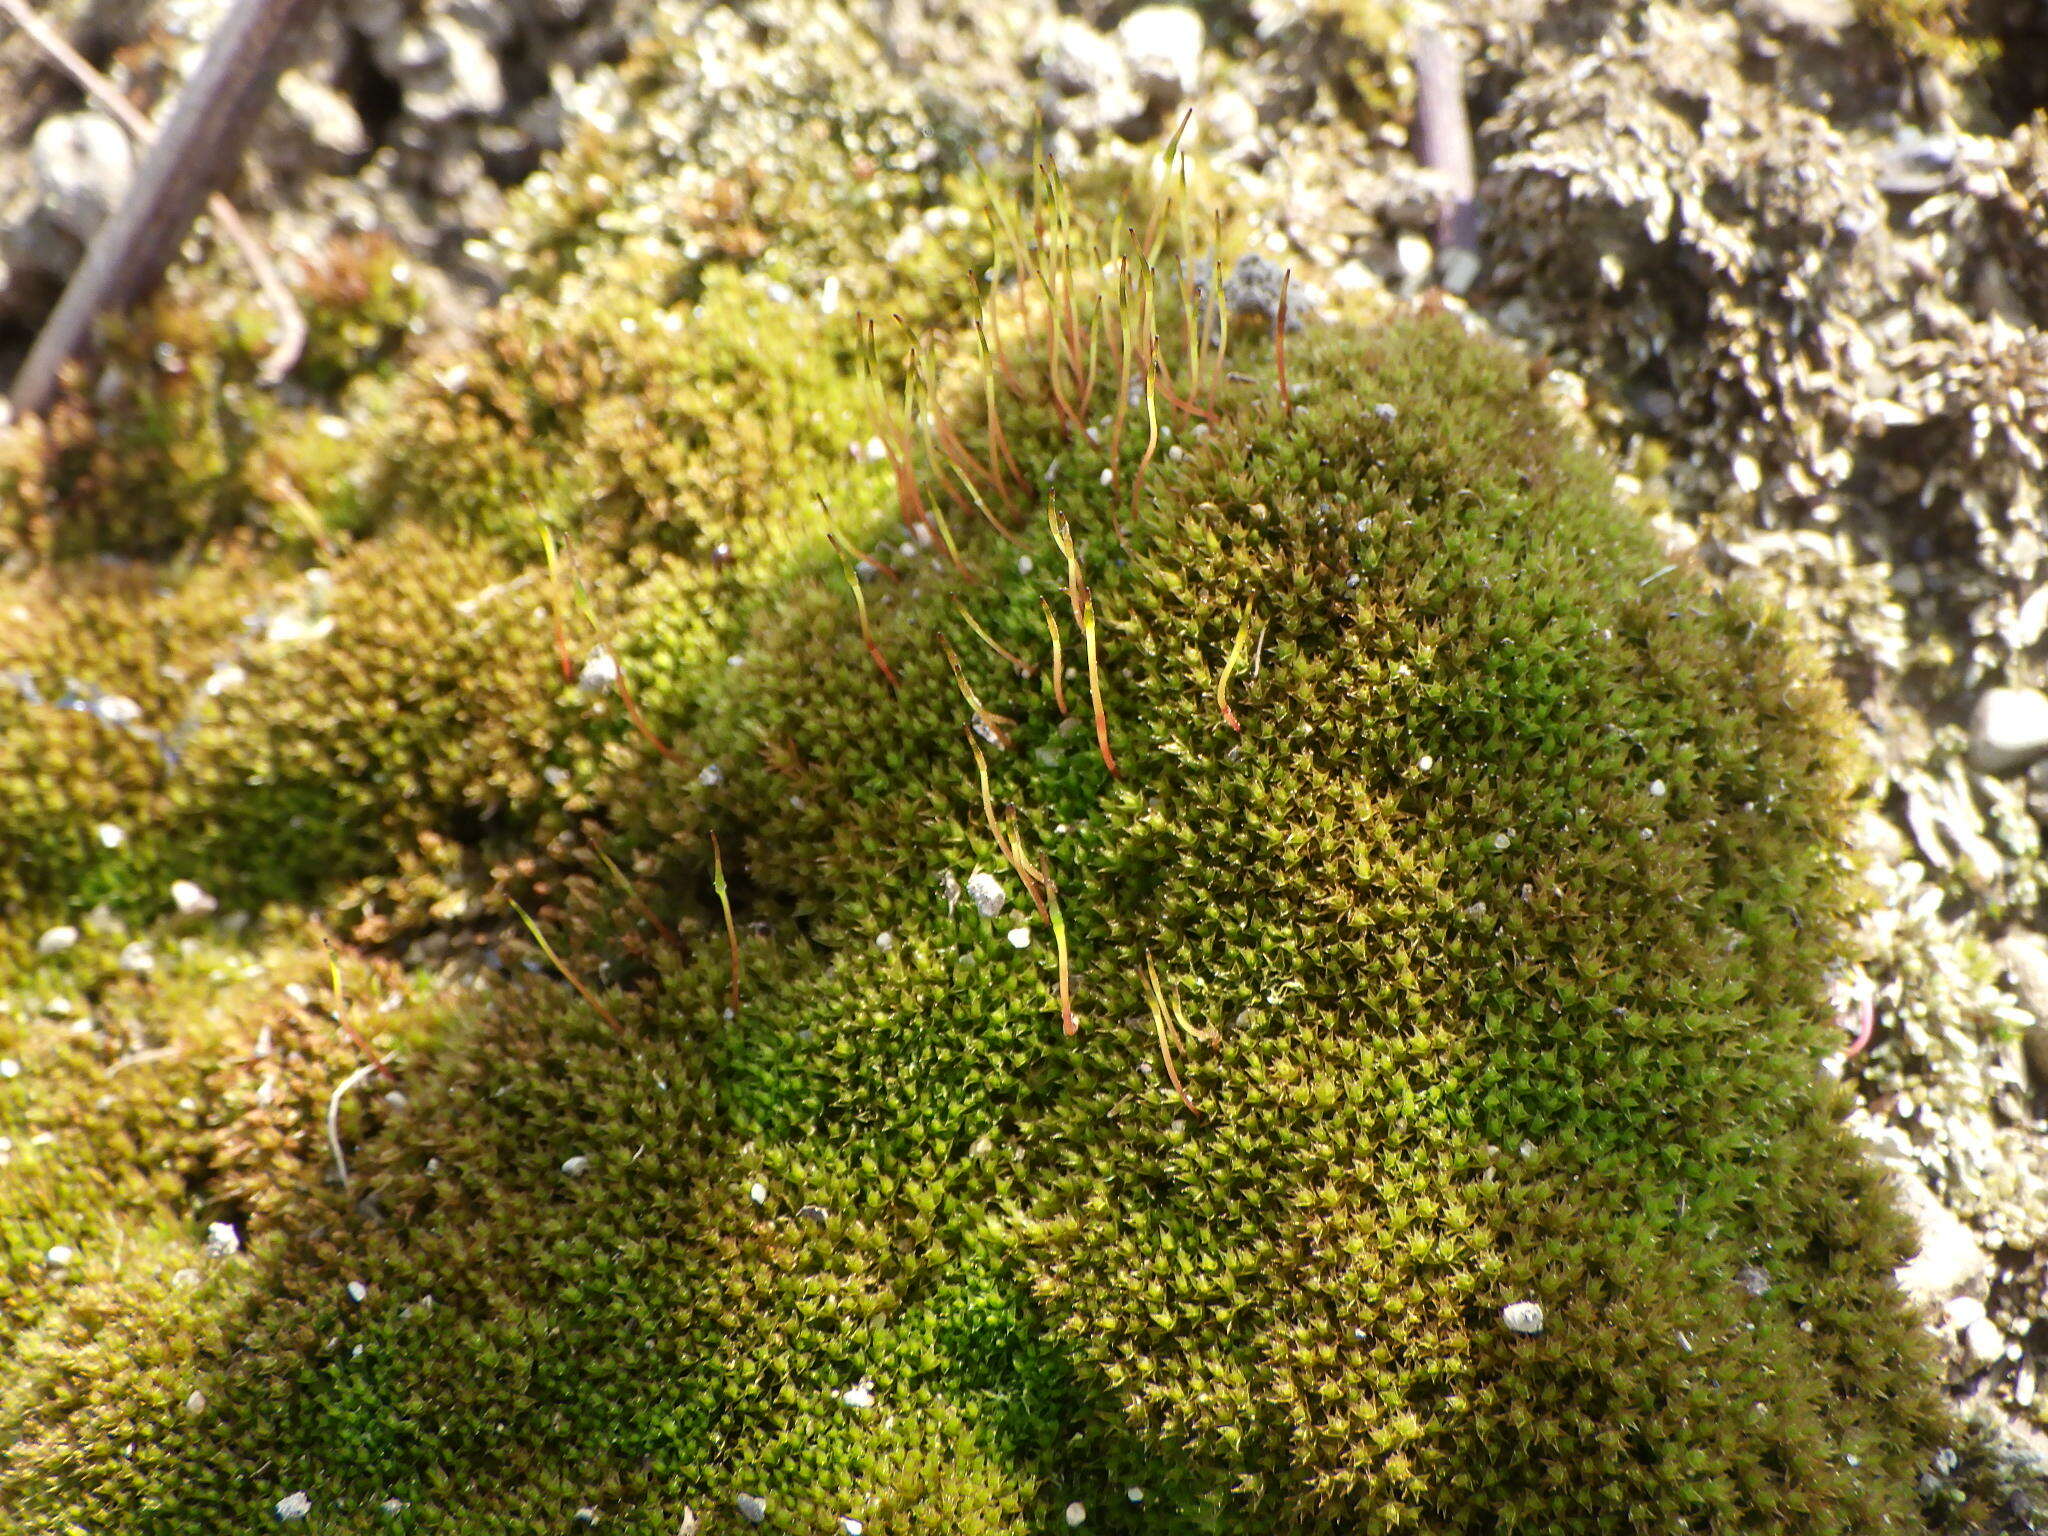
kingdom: Plantae
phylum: Bryophyta
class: Bryopsida
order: Dicranales
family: Ditrichaceae
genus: Ceratodon
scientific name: Ceratodon purpureus
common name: Redshank
